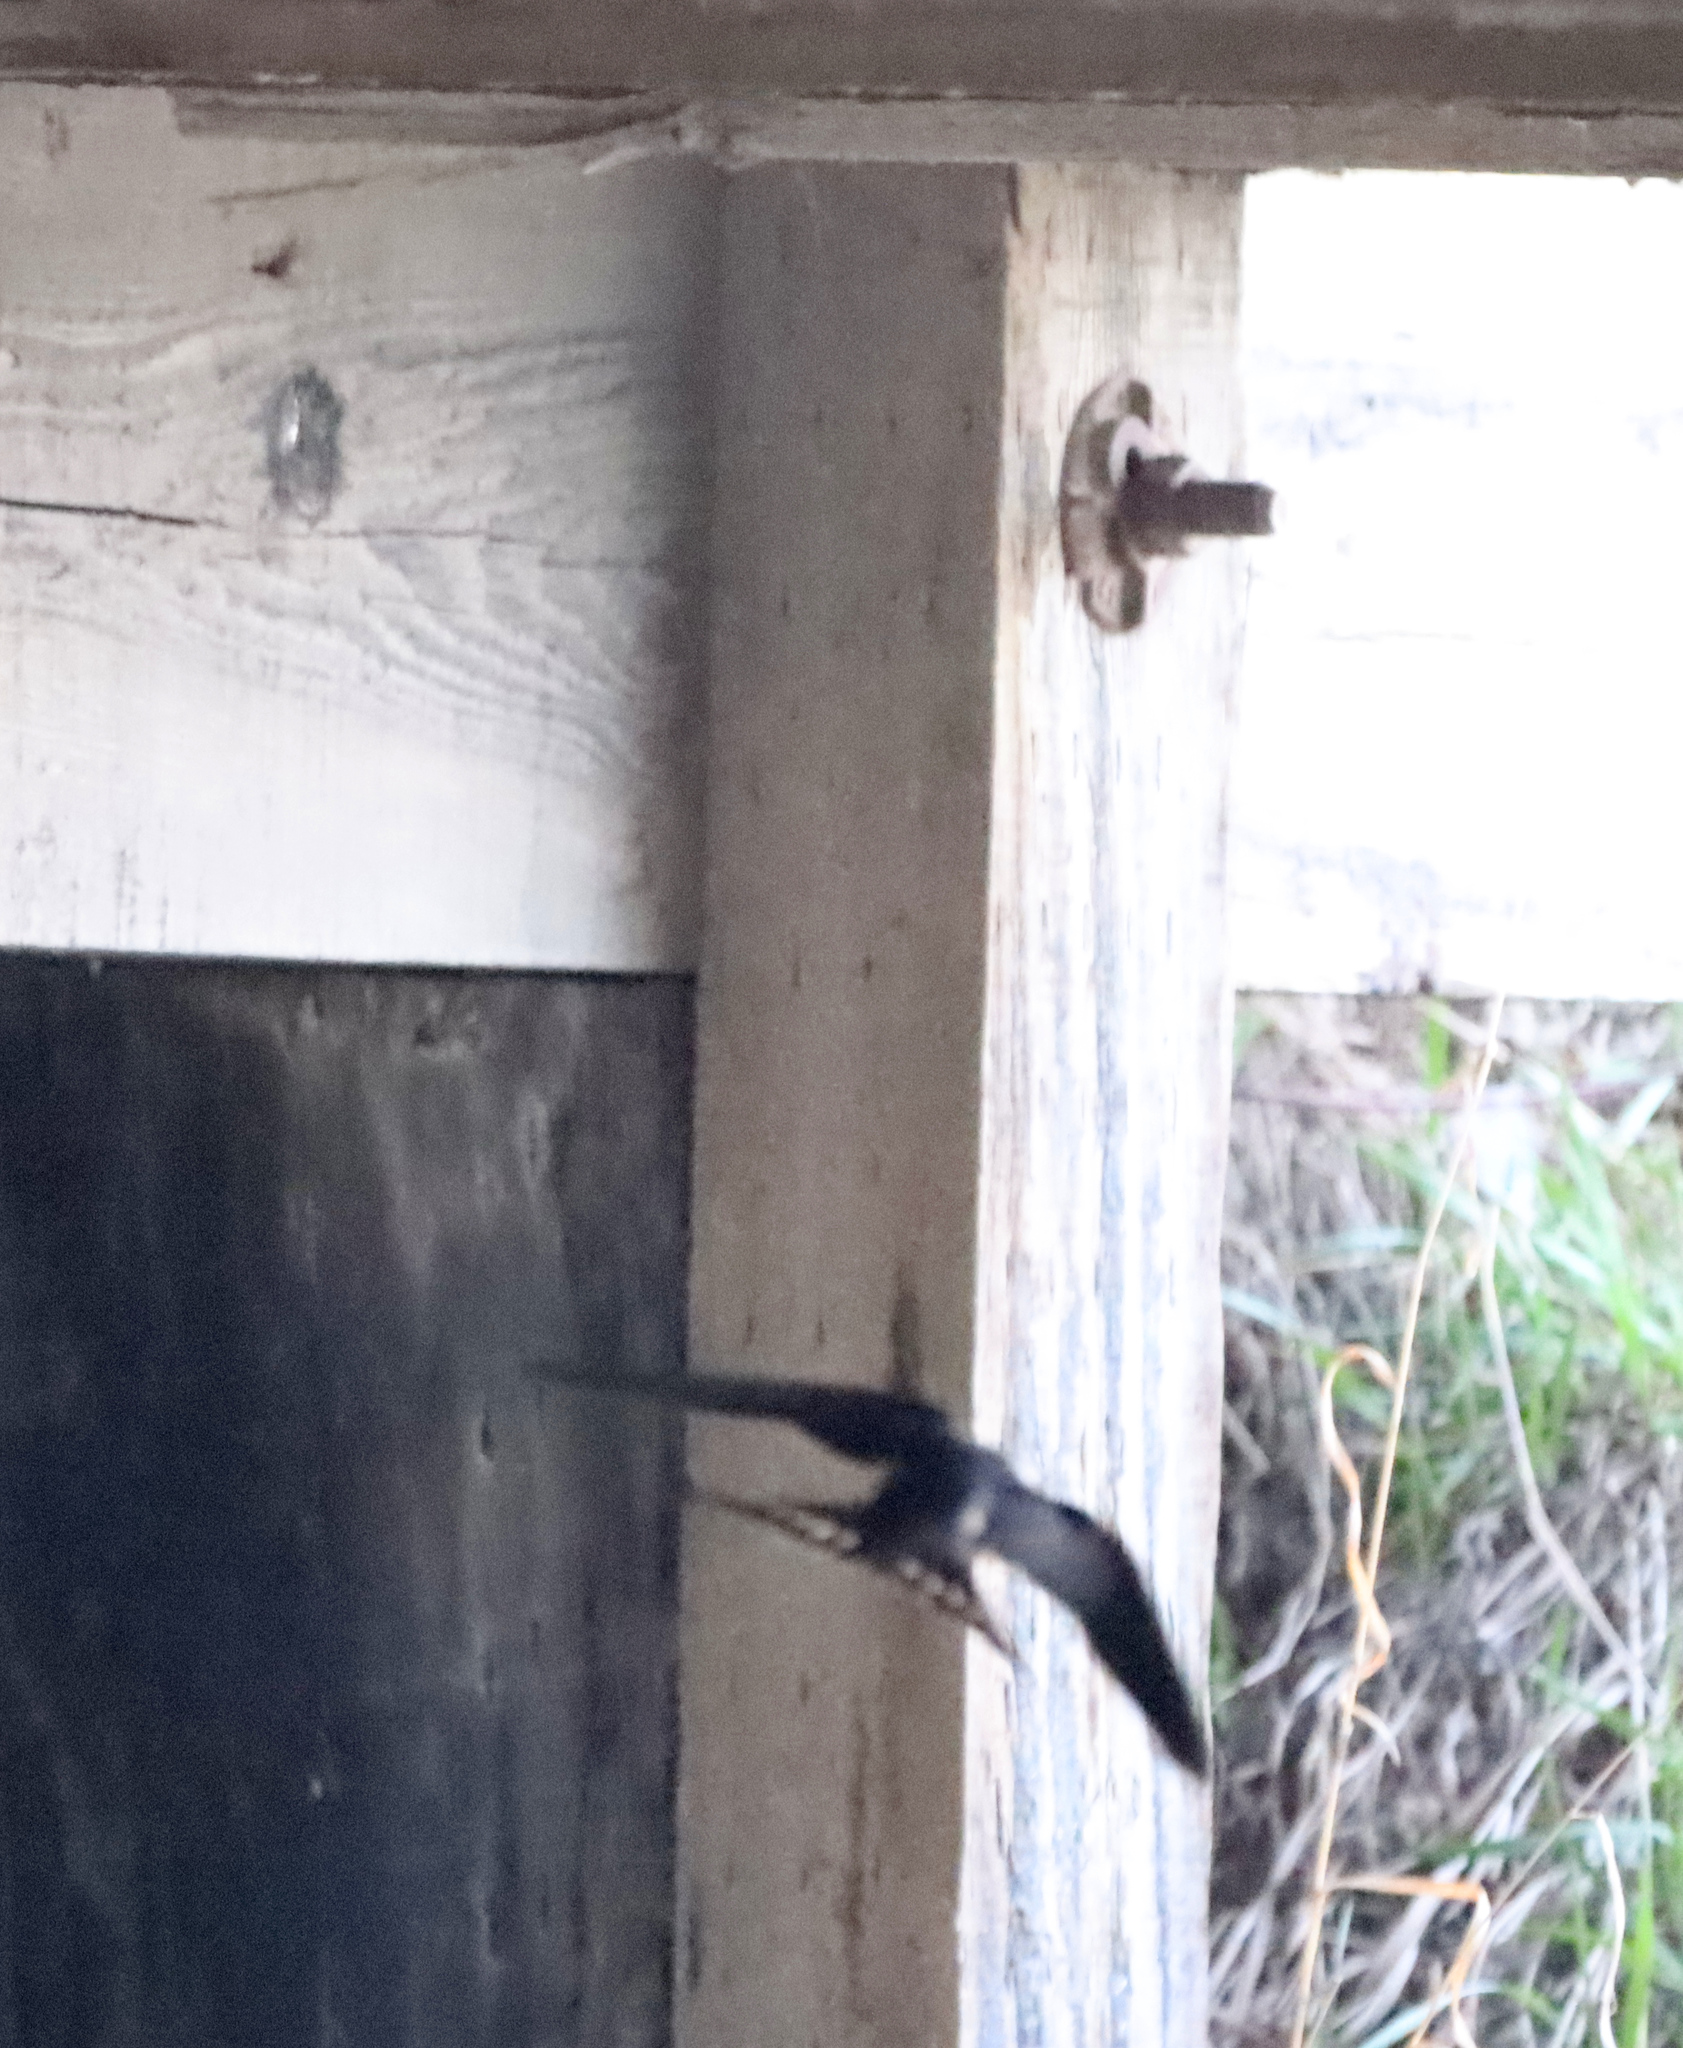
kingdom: Animalia
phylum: Chordata
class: Aves
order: Passeriformes
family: Hirundinidae
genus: Hirundo
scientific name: Hirundo rustica
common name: Barn swallow
